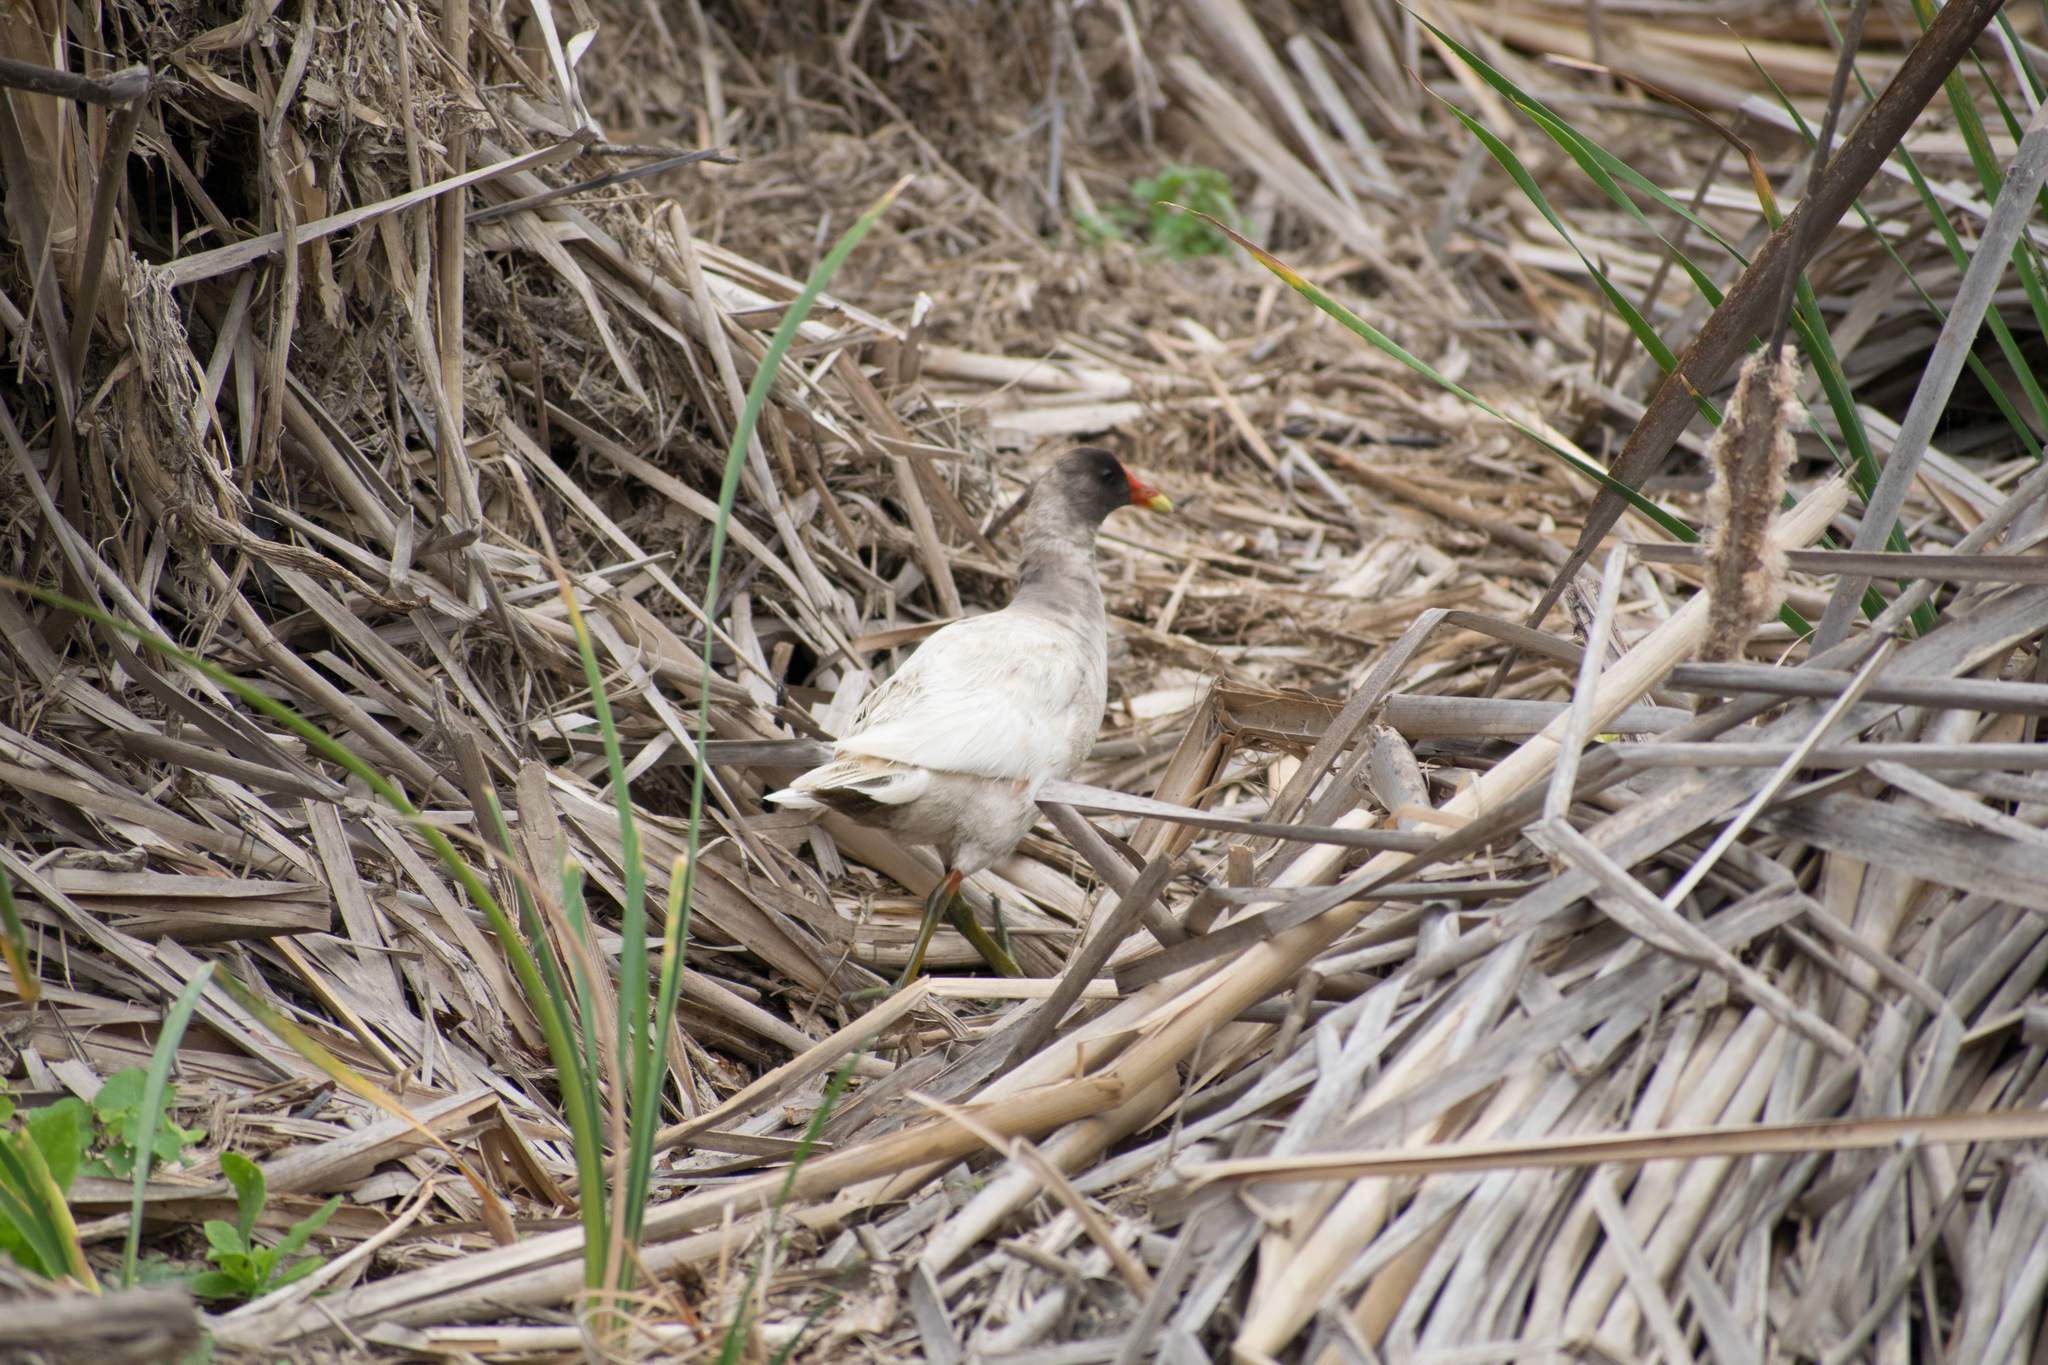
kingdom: Animalia
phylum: Chordata
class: Aves
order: Gruiformes
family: Rallidae
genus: Gallinula
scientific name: Gallinula chloropus
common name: Common moorhen
